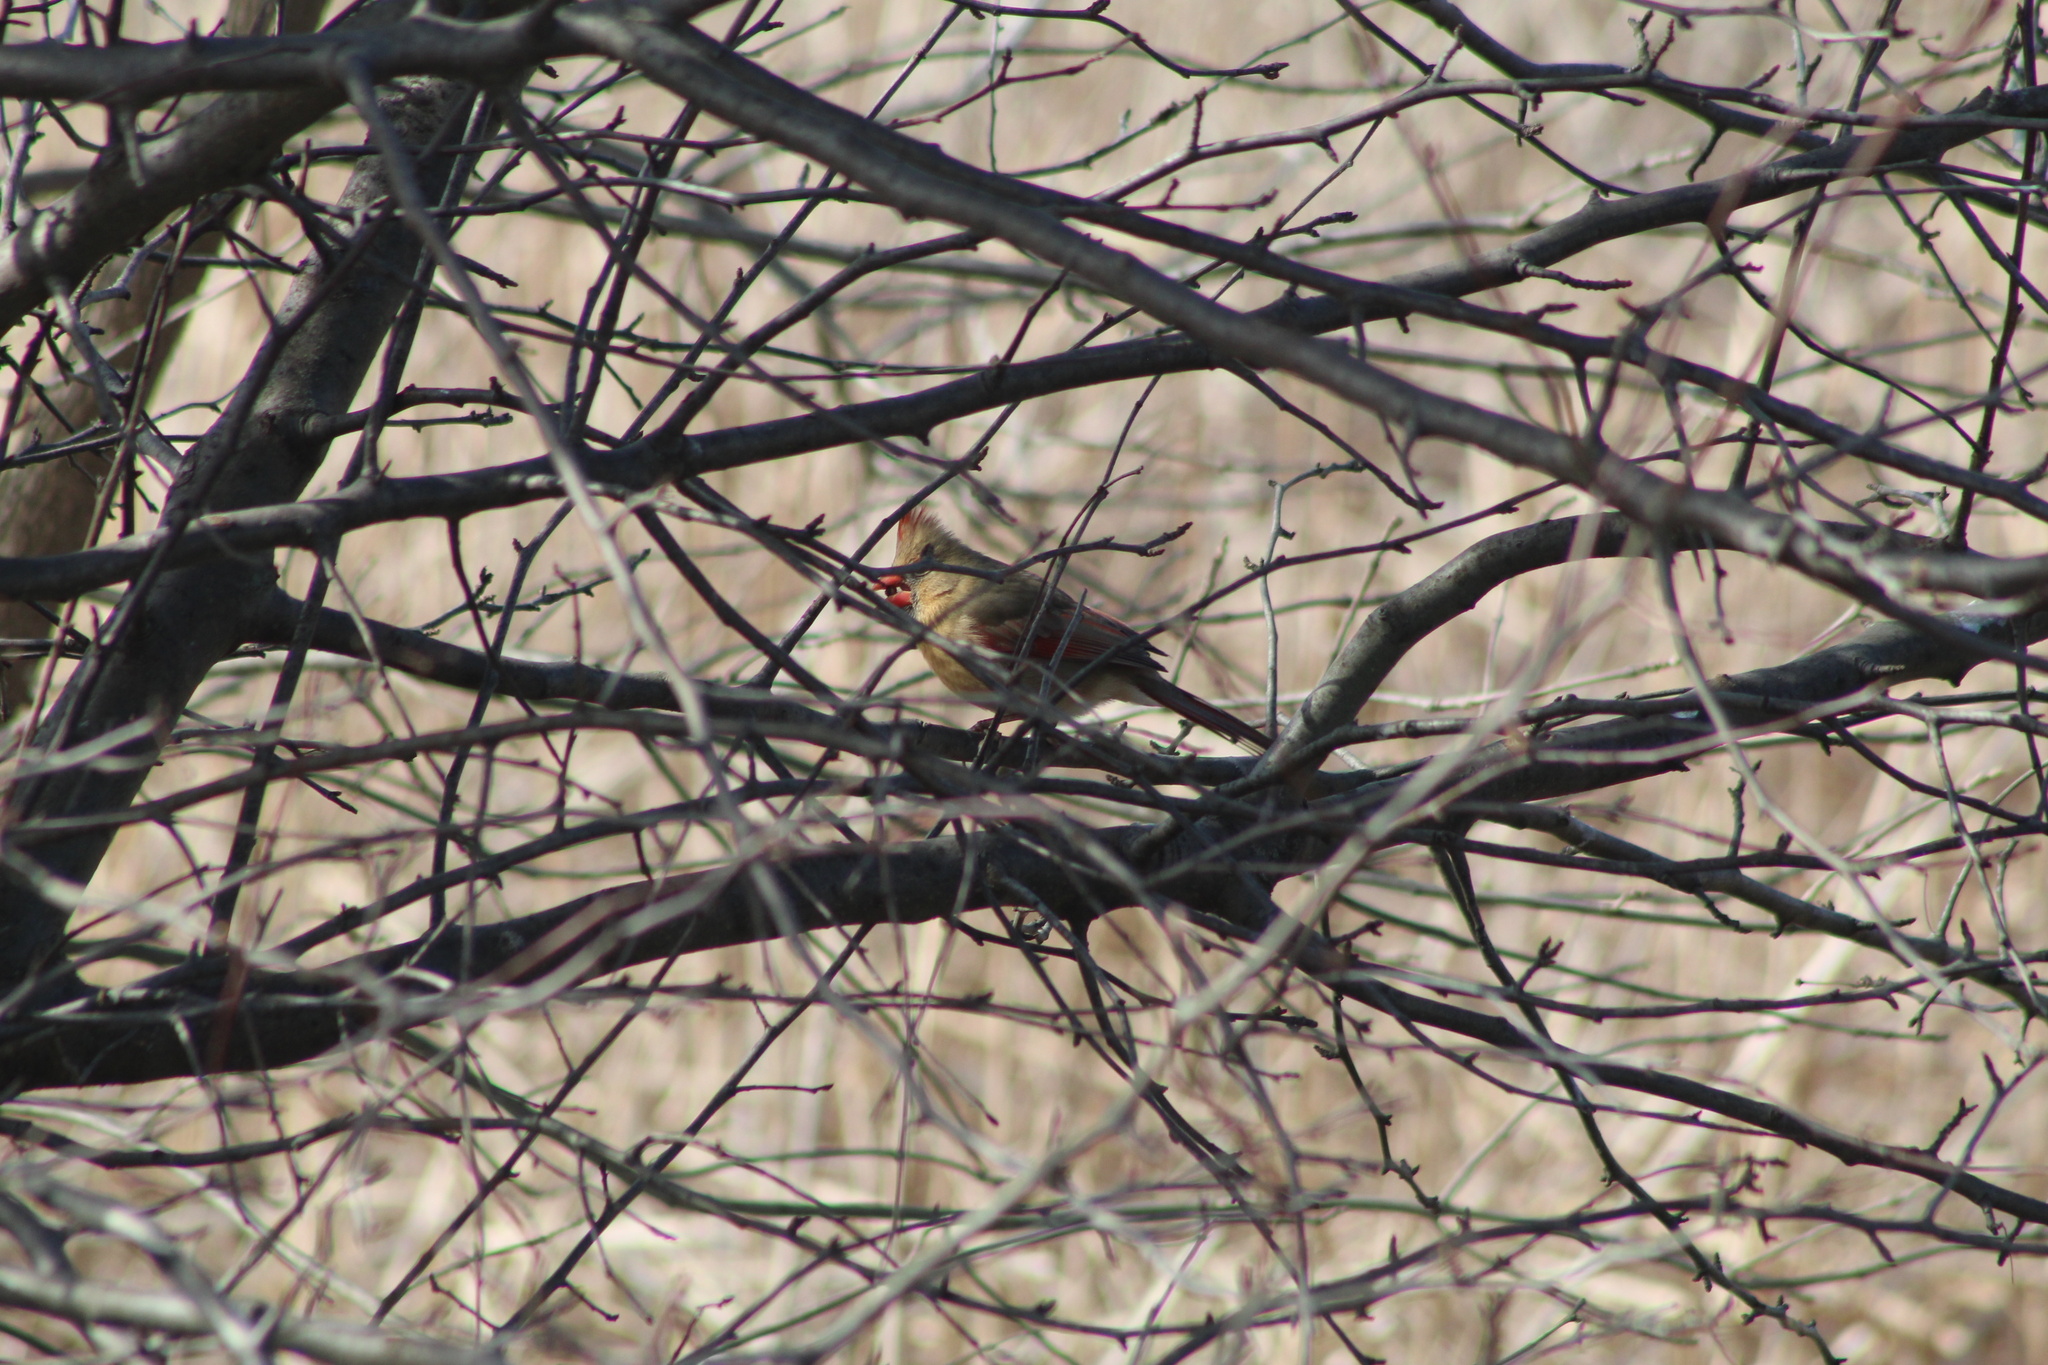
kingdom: Animalia
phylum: Chordata
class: Aves
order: Passeriformes
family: Cardinalidae
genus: Cardinalis
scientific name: Cardinalis cardinalis
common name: Northern cardinal
